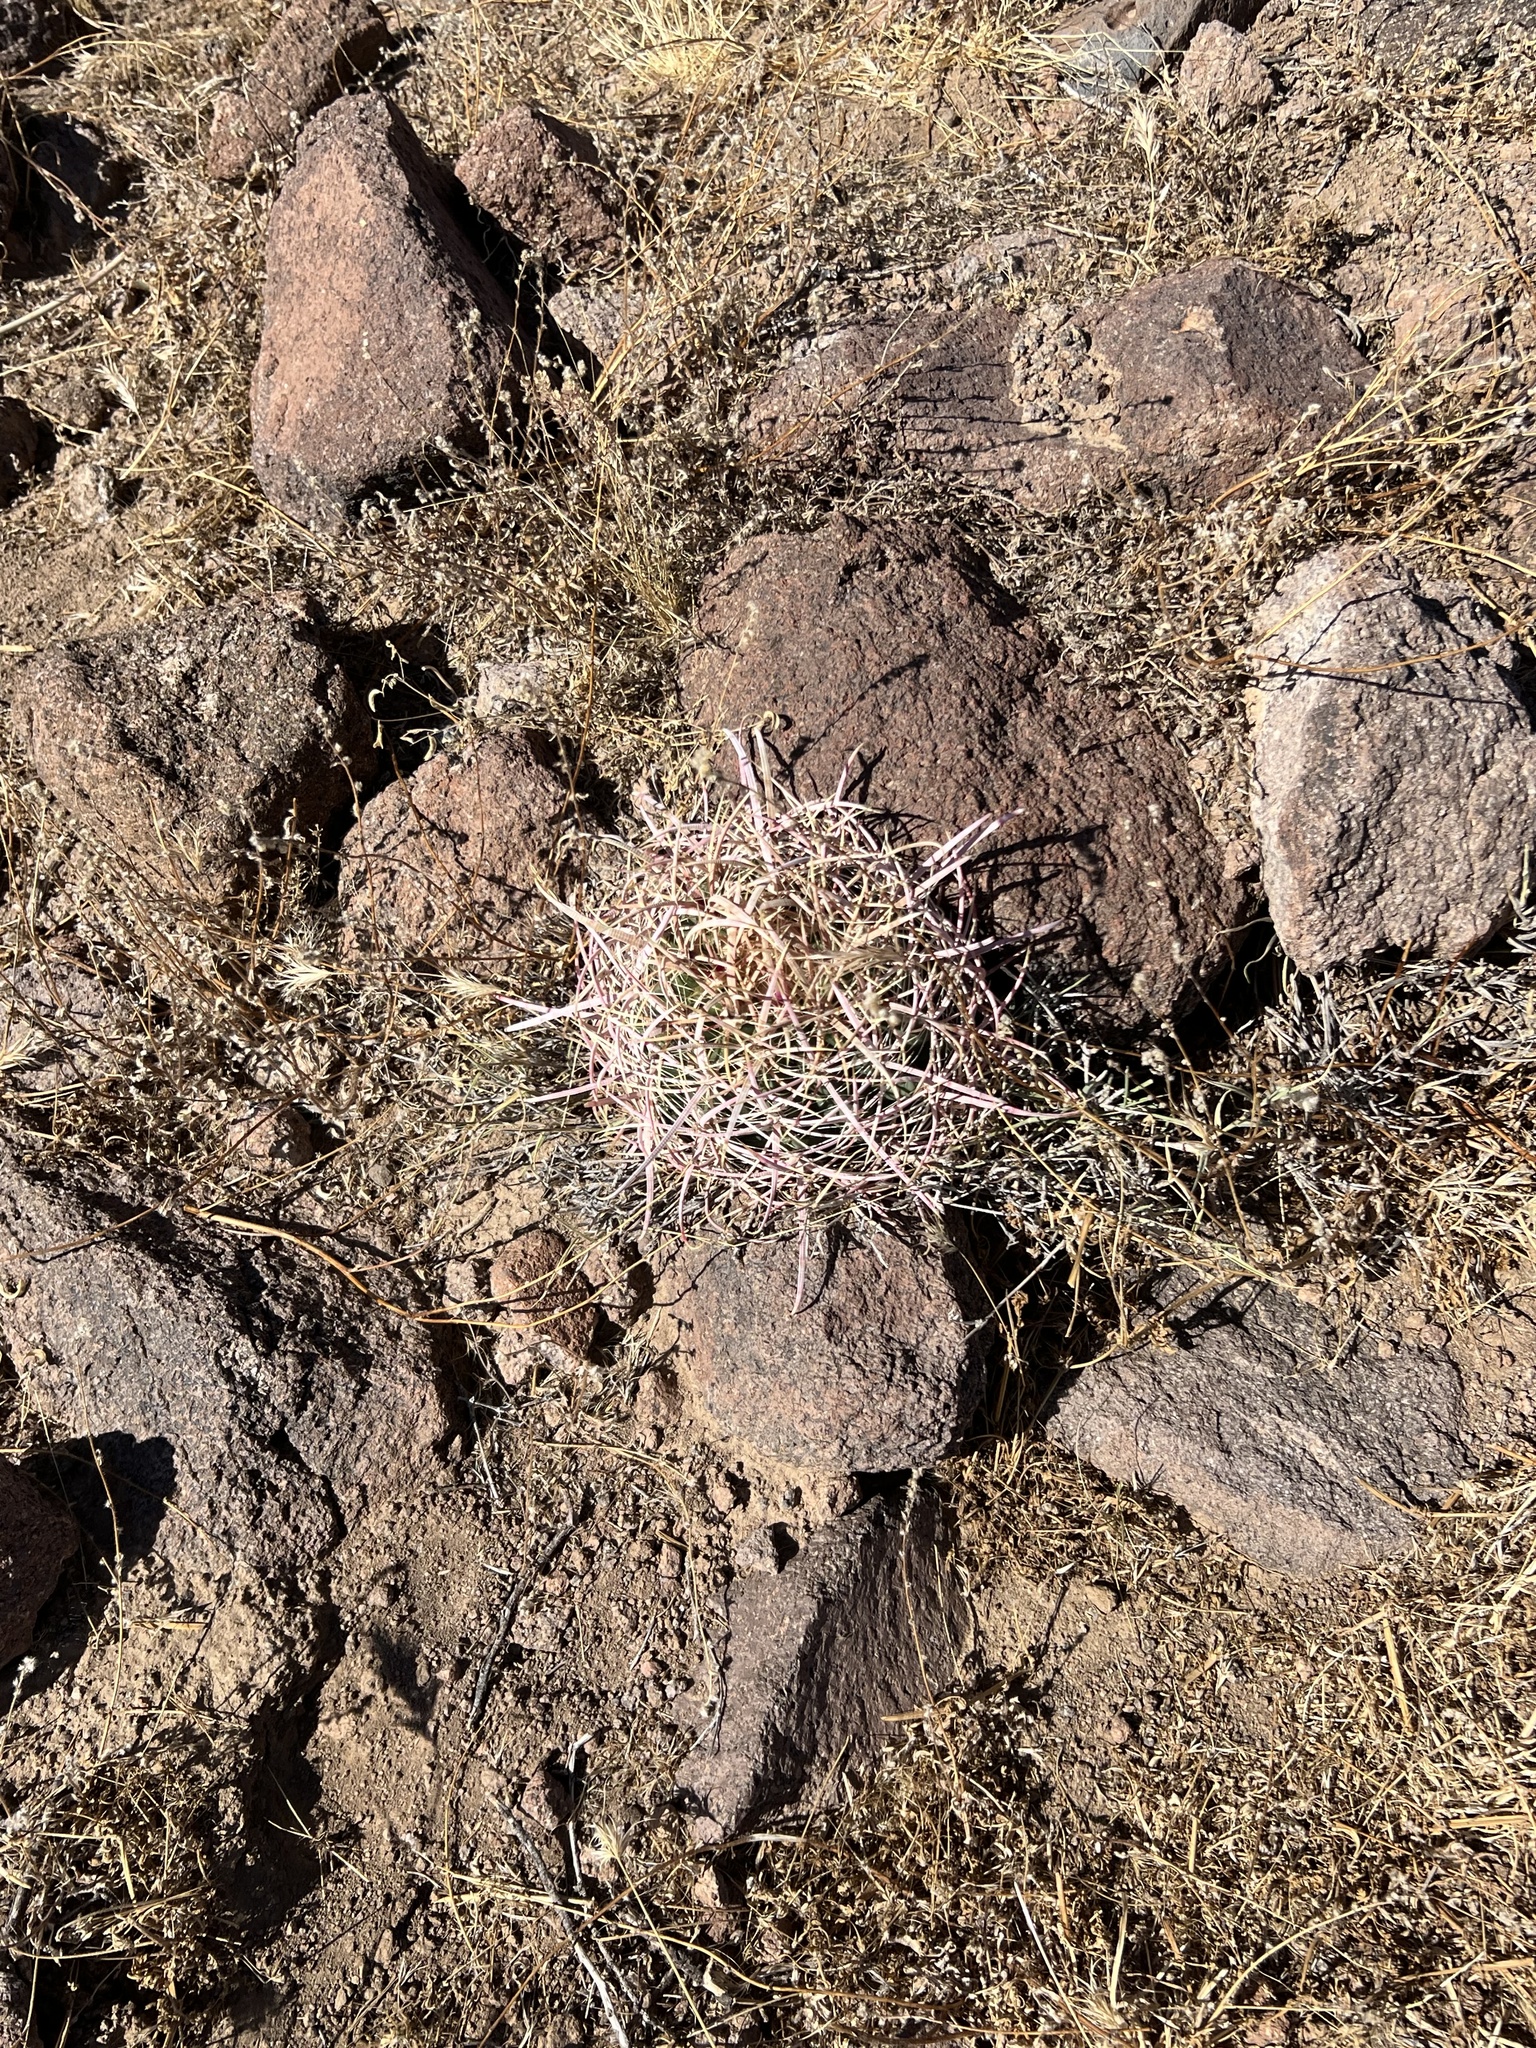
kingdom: Plantae
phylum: Tracheophyta
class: Magnoliopsida
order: Caryophyllales
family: Cactaceae
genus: Ferocactus
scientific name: Ferocactus cylindraceus
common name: California barrel cactus
